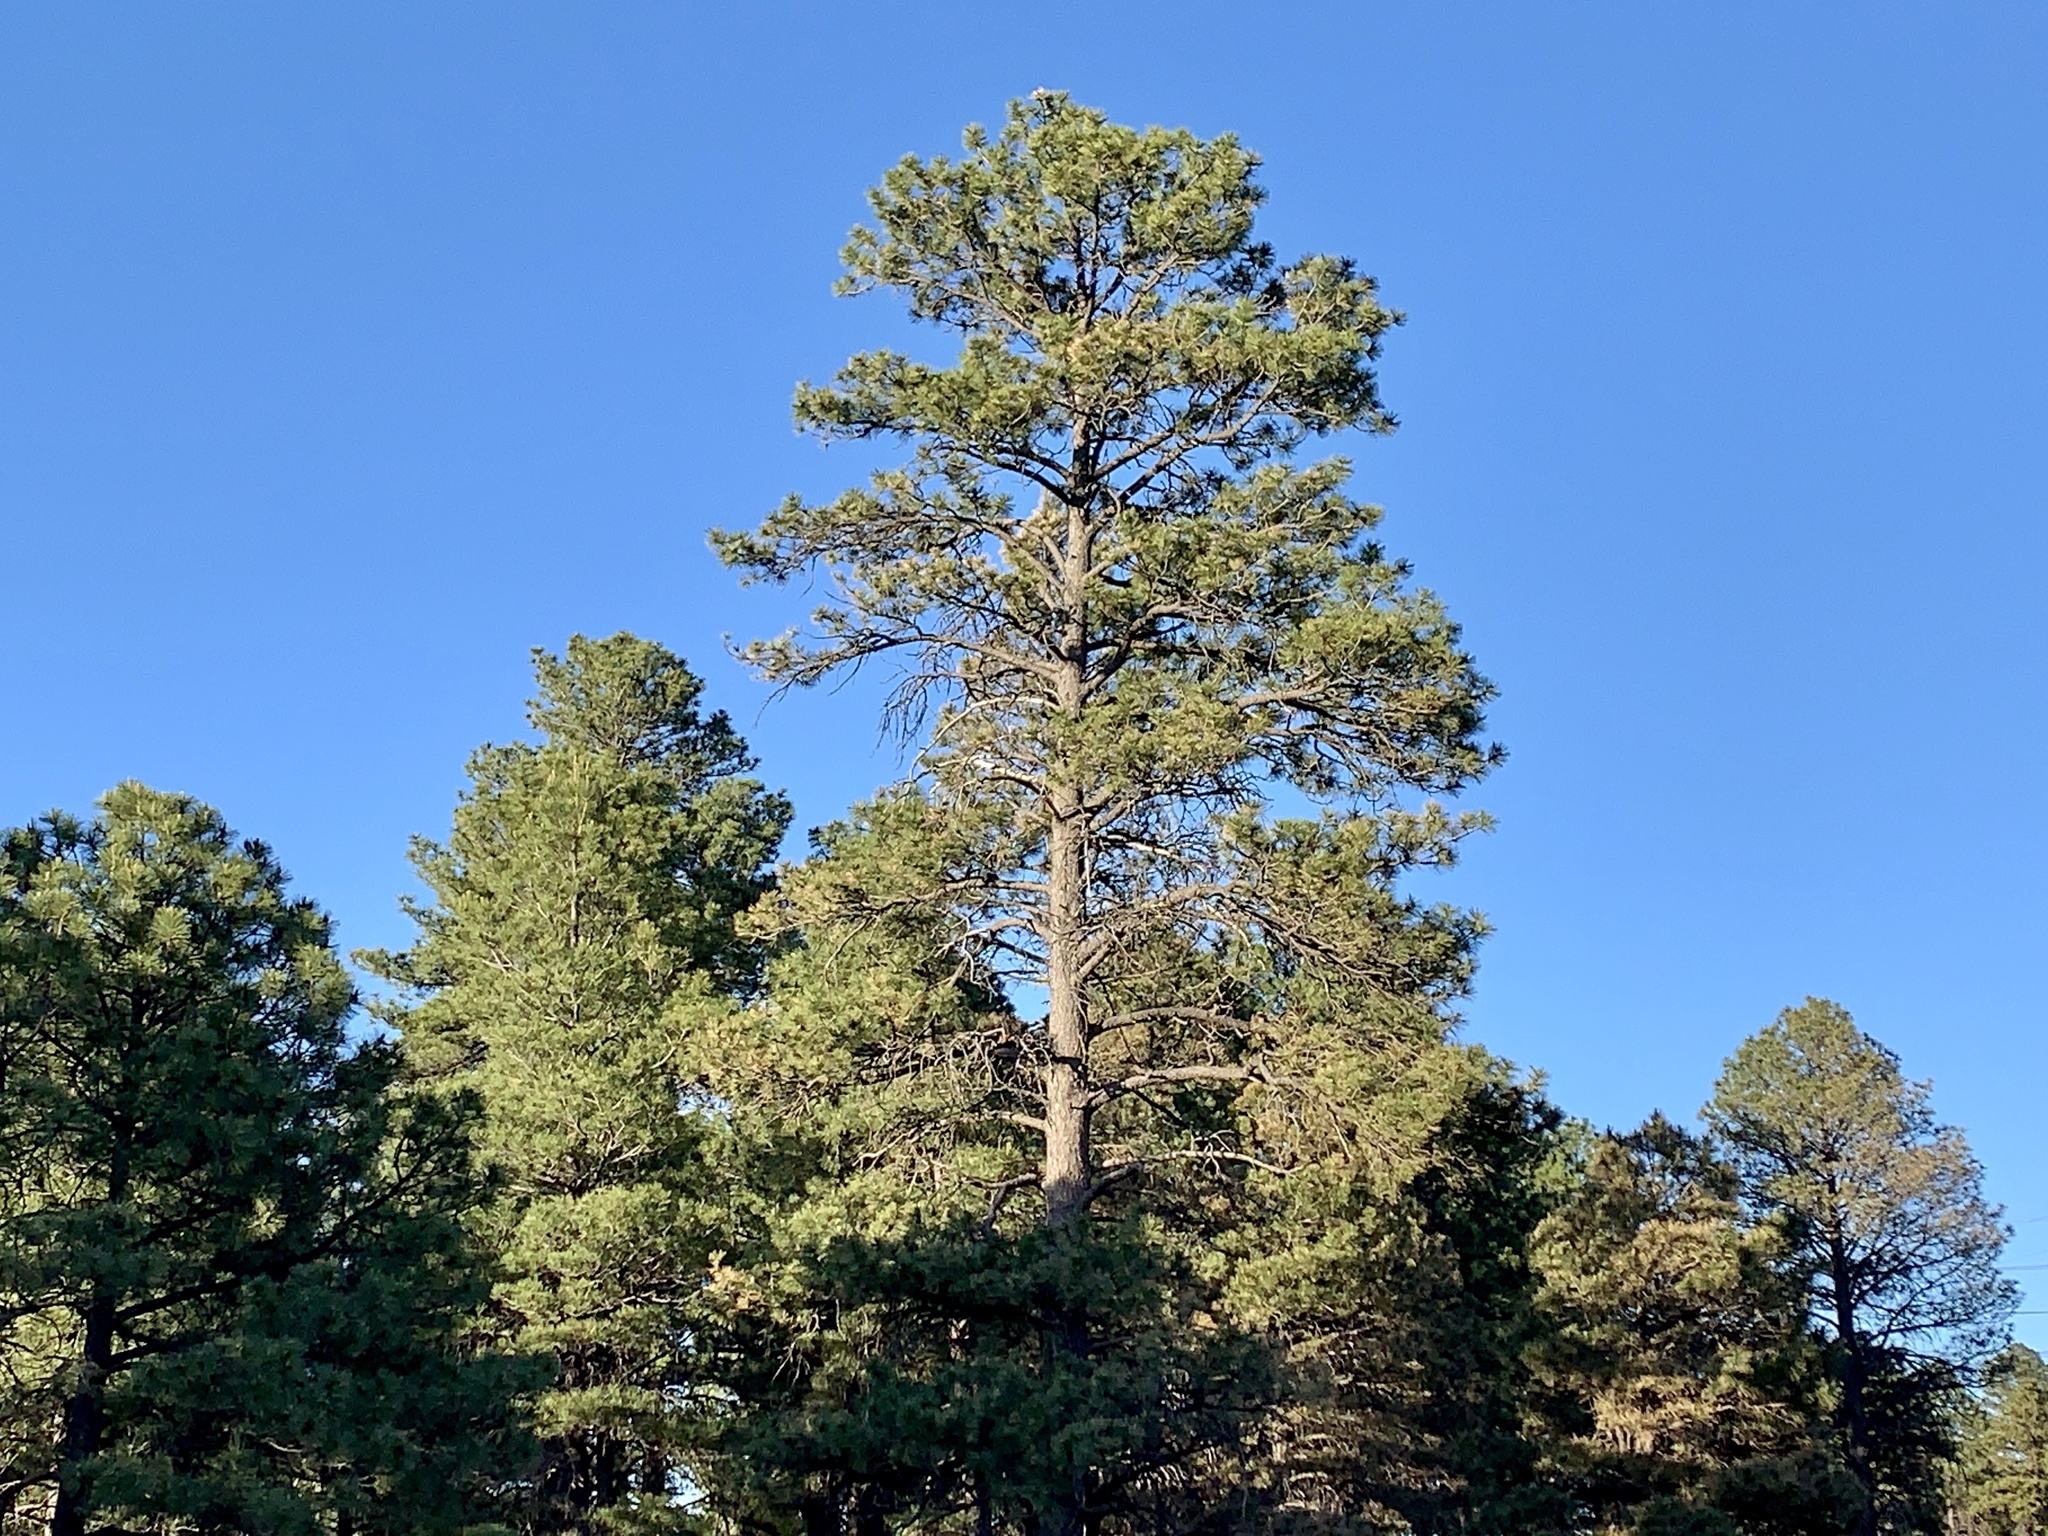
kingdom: Plantae
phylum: Tracheophyta
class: Pinopsida
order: Pinales
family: Pinaceae
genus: Pinus
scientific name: Pinus ponderosa
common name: Western yellow-pine
